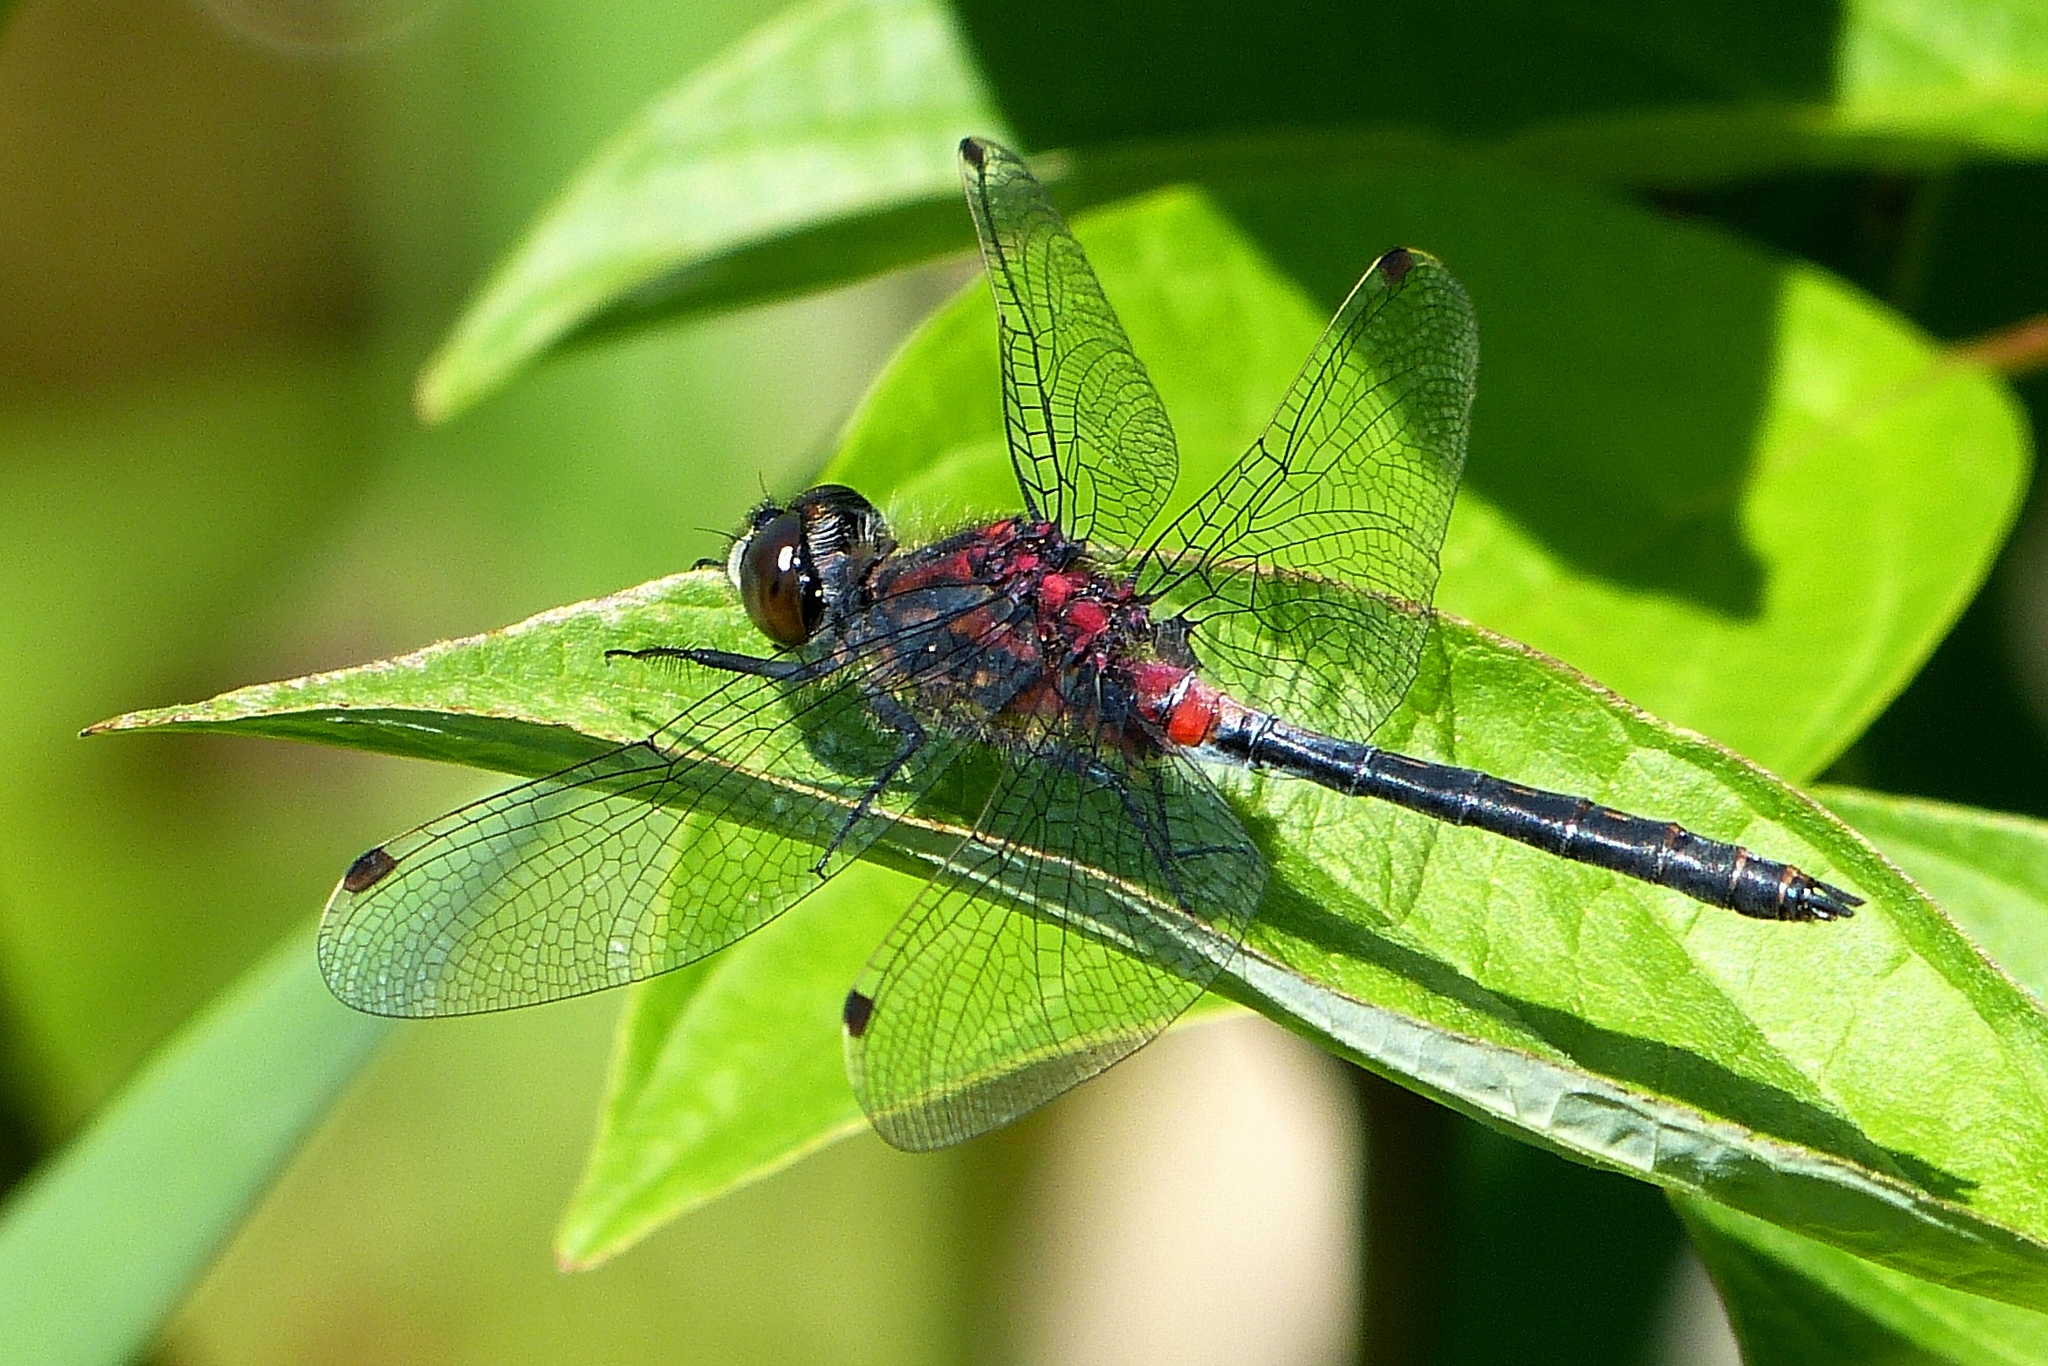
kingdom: Animalia
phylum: Arthropoda
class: Insecta
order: Odonata
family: Libellulidae
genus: Leucorrhinia
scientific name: Leucorrhinia proxima
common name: Belted whiteface
